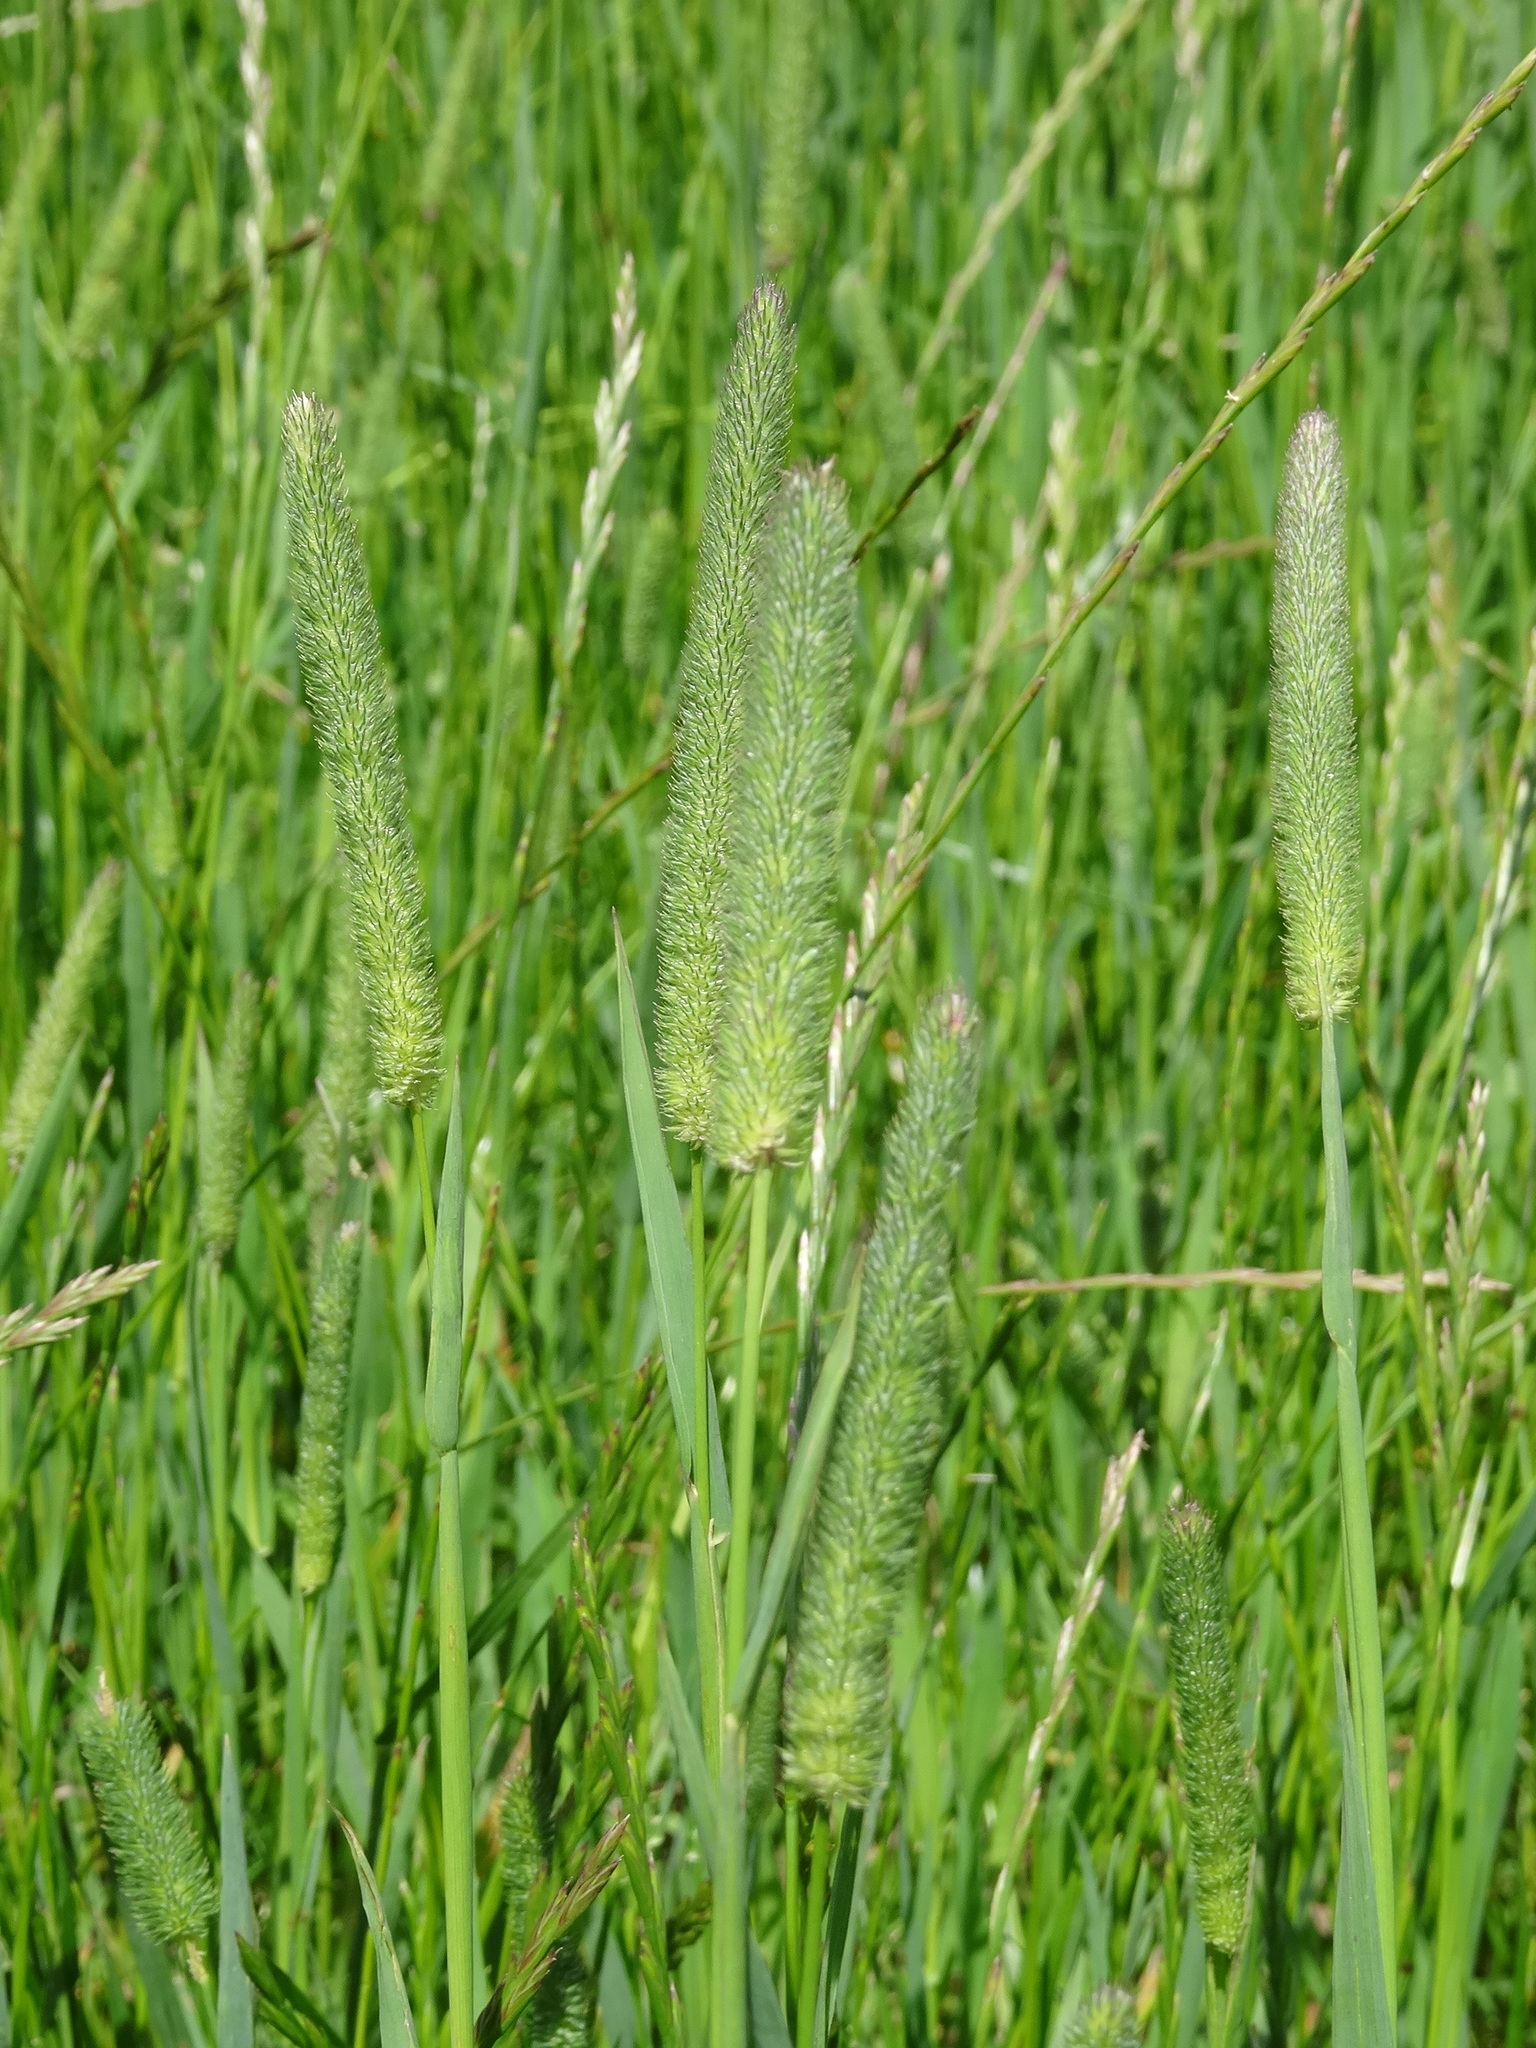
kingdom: Plantae
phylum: Tracheophyta
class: Liliopsida
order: Poales
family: Poaceae
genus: Phleum
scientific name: Phleum pratense
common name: Timothy grass
